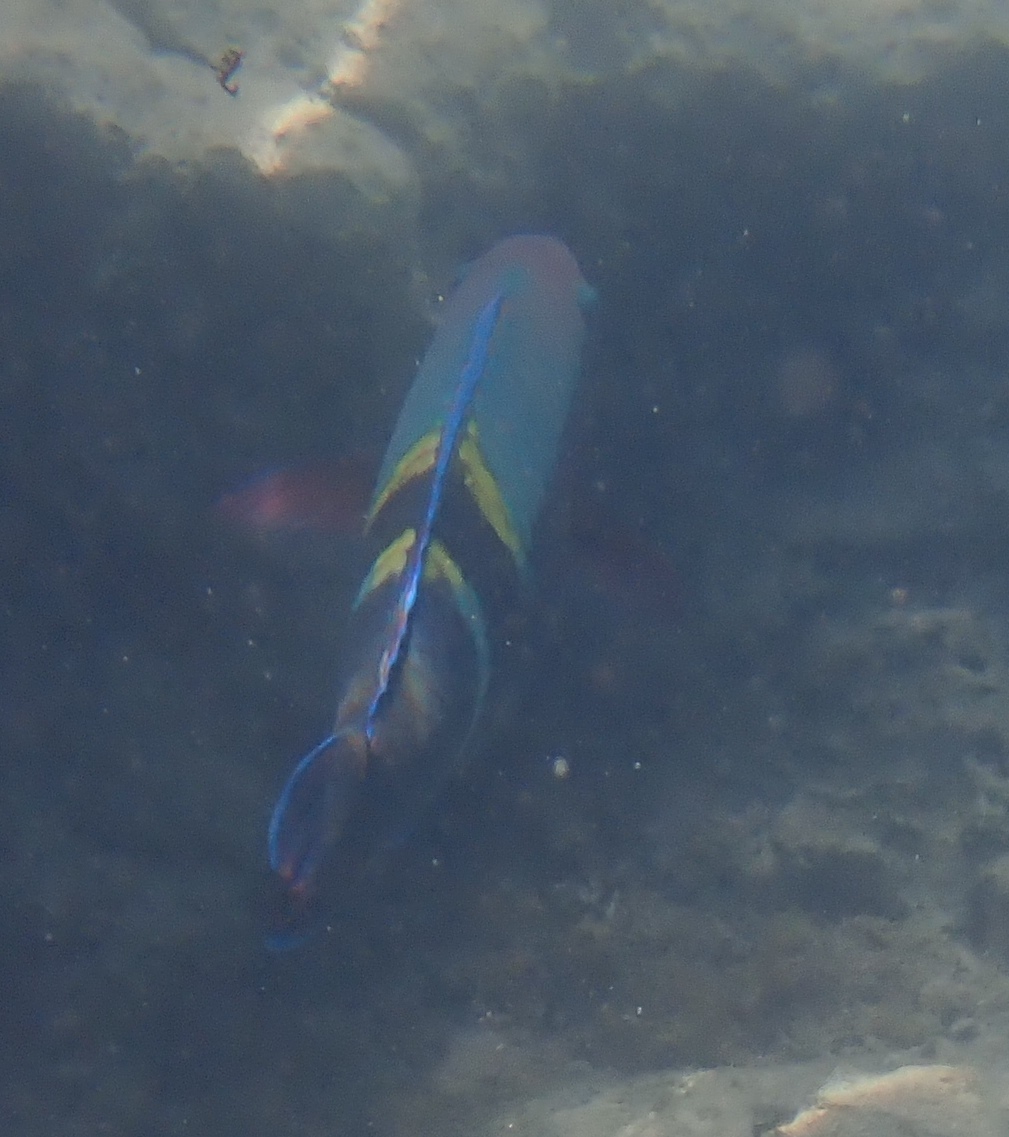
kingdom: Animalia
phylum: Chordata
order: Perciformes
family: Scaridae
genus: Scarus
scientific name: Scarus schlegeli
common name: Schlegel's parrotfish
